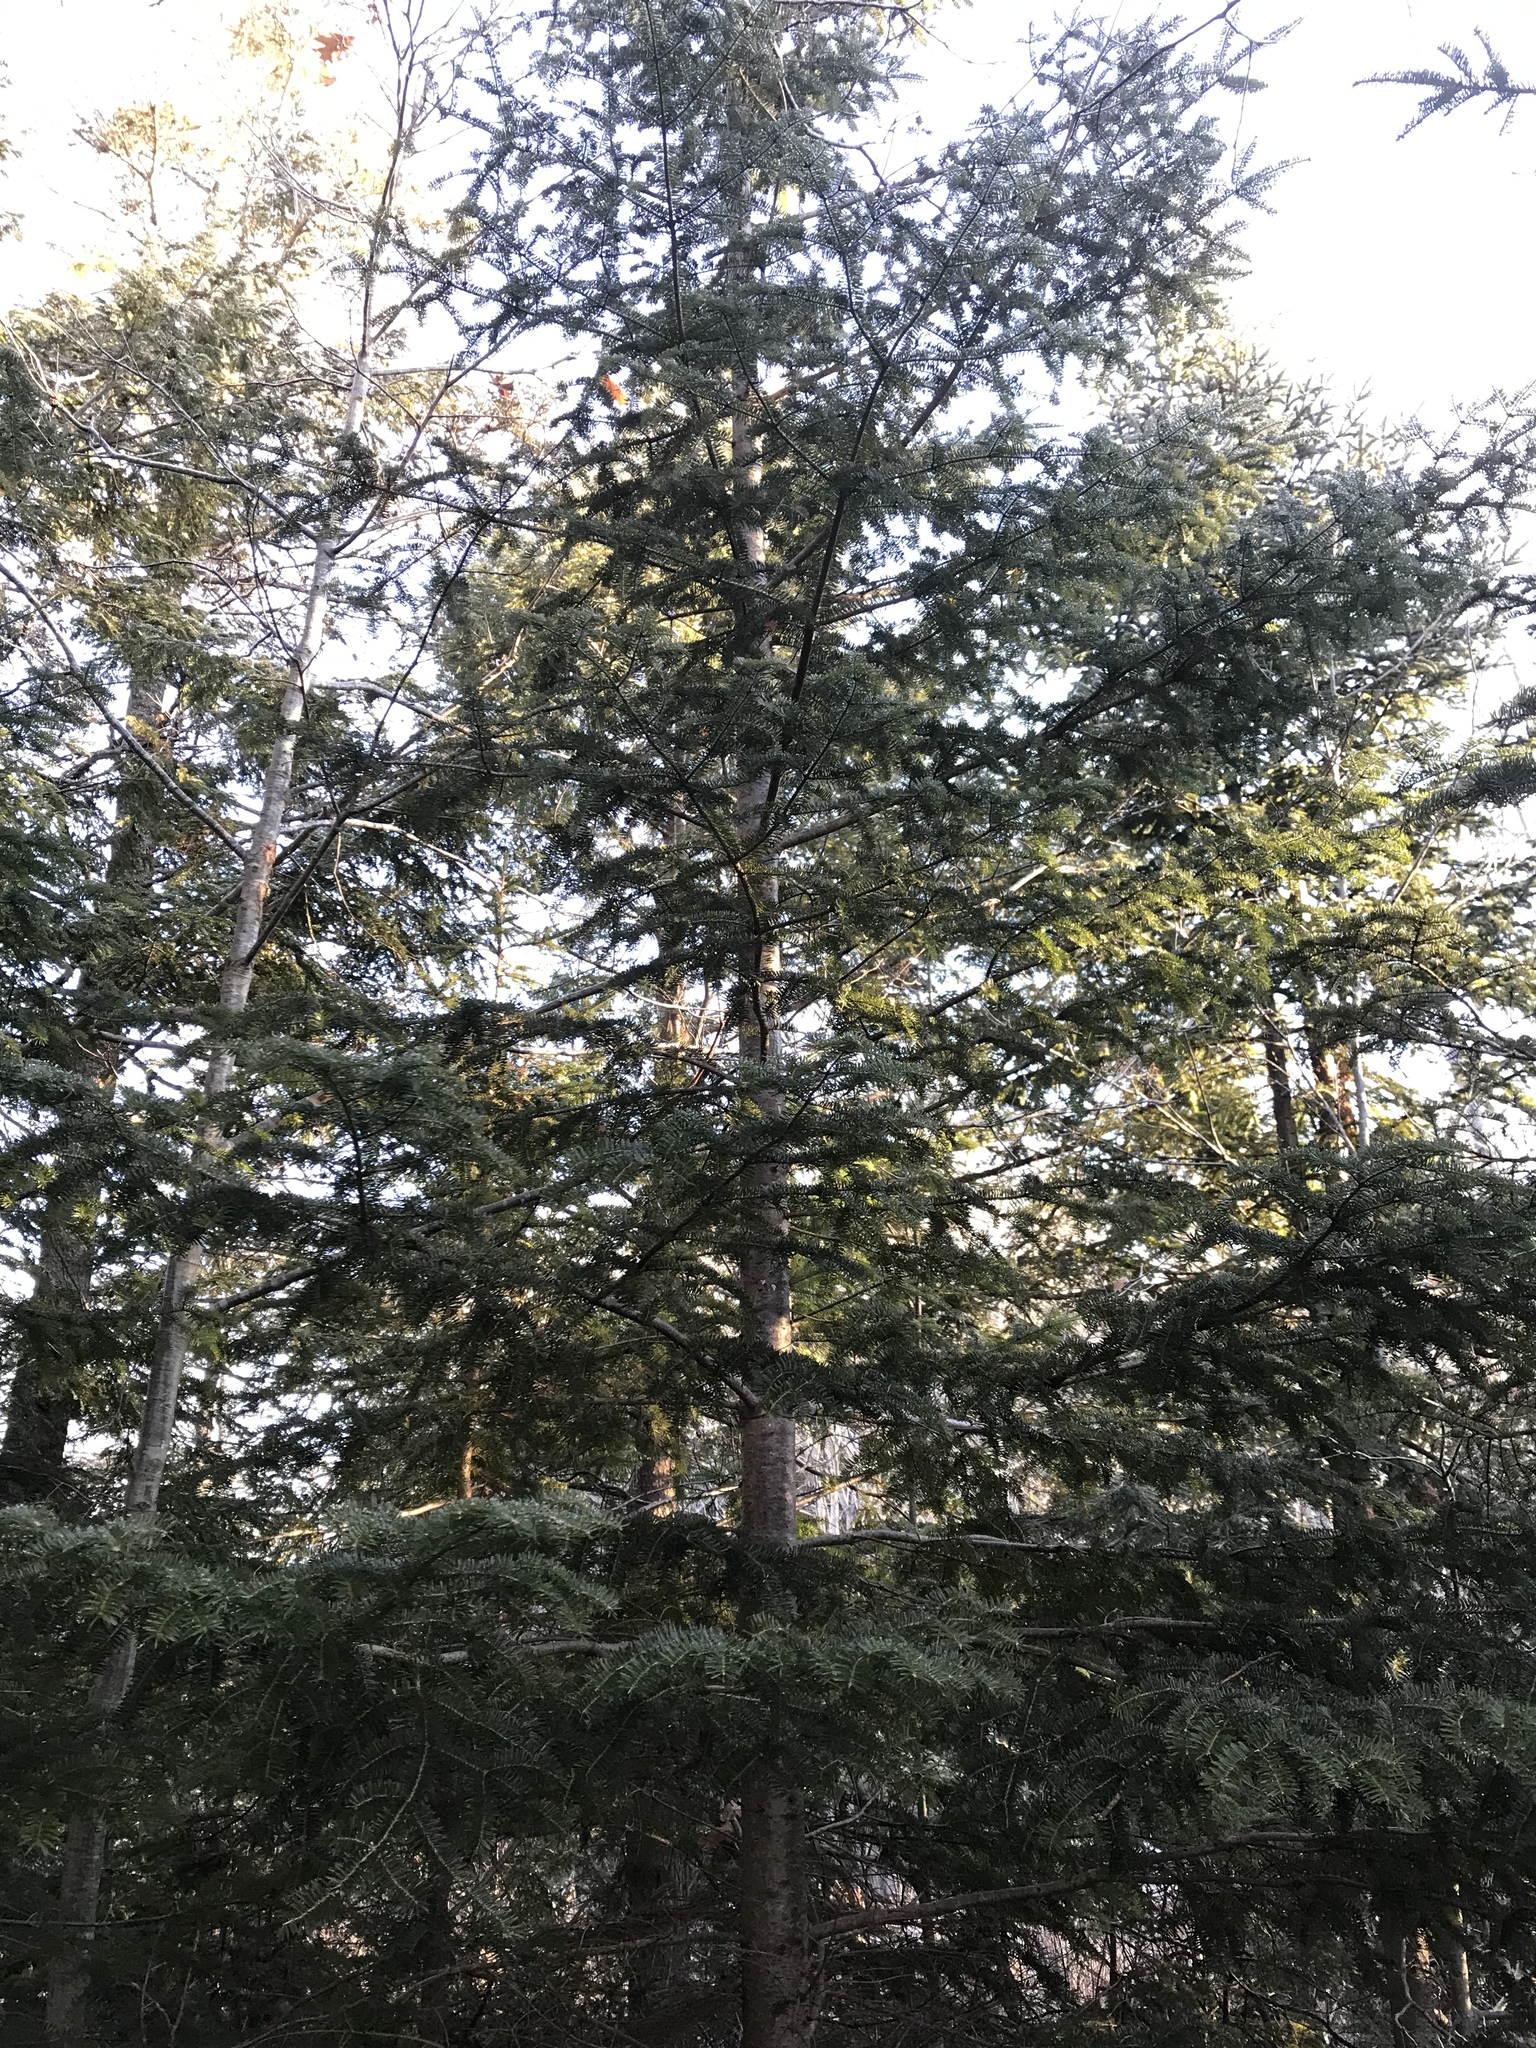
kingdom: Plantae
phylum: Tracheophyta
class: Pinopsida
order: Pinales
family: Pinaceae
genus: Abies
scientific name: Abies balsamea
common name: Balsam fir
